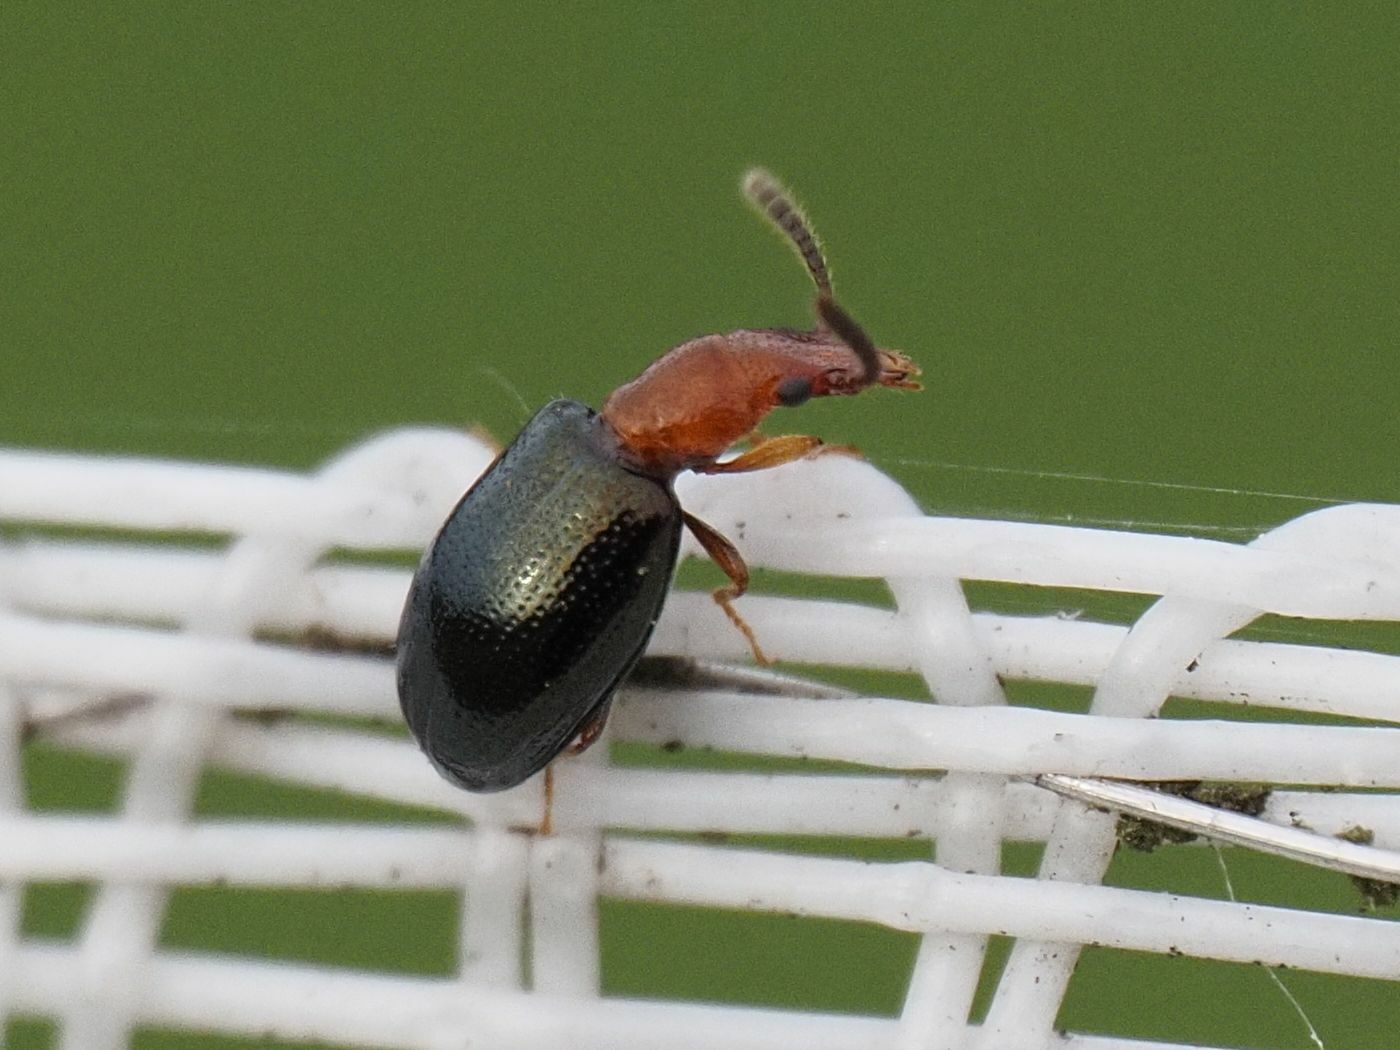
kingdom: Animalia
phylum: Arthropoda
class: Insecta
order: Coleoptera
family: Salpingidae
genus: Vincenzellus
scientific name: Vincenzellus ruficollis
